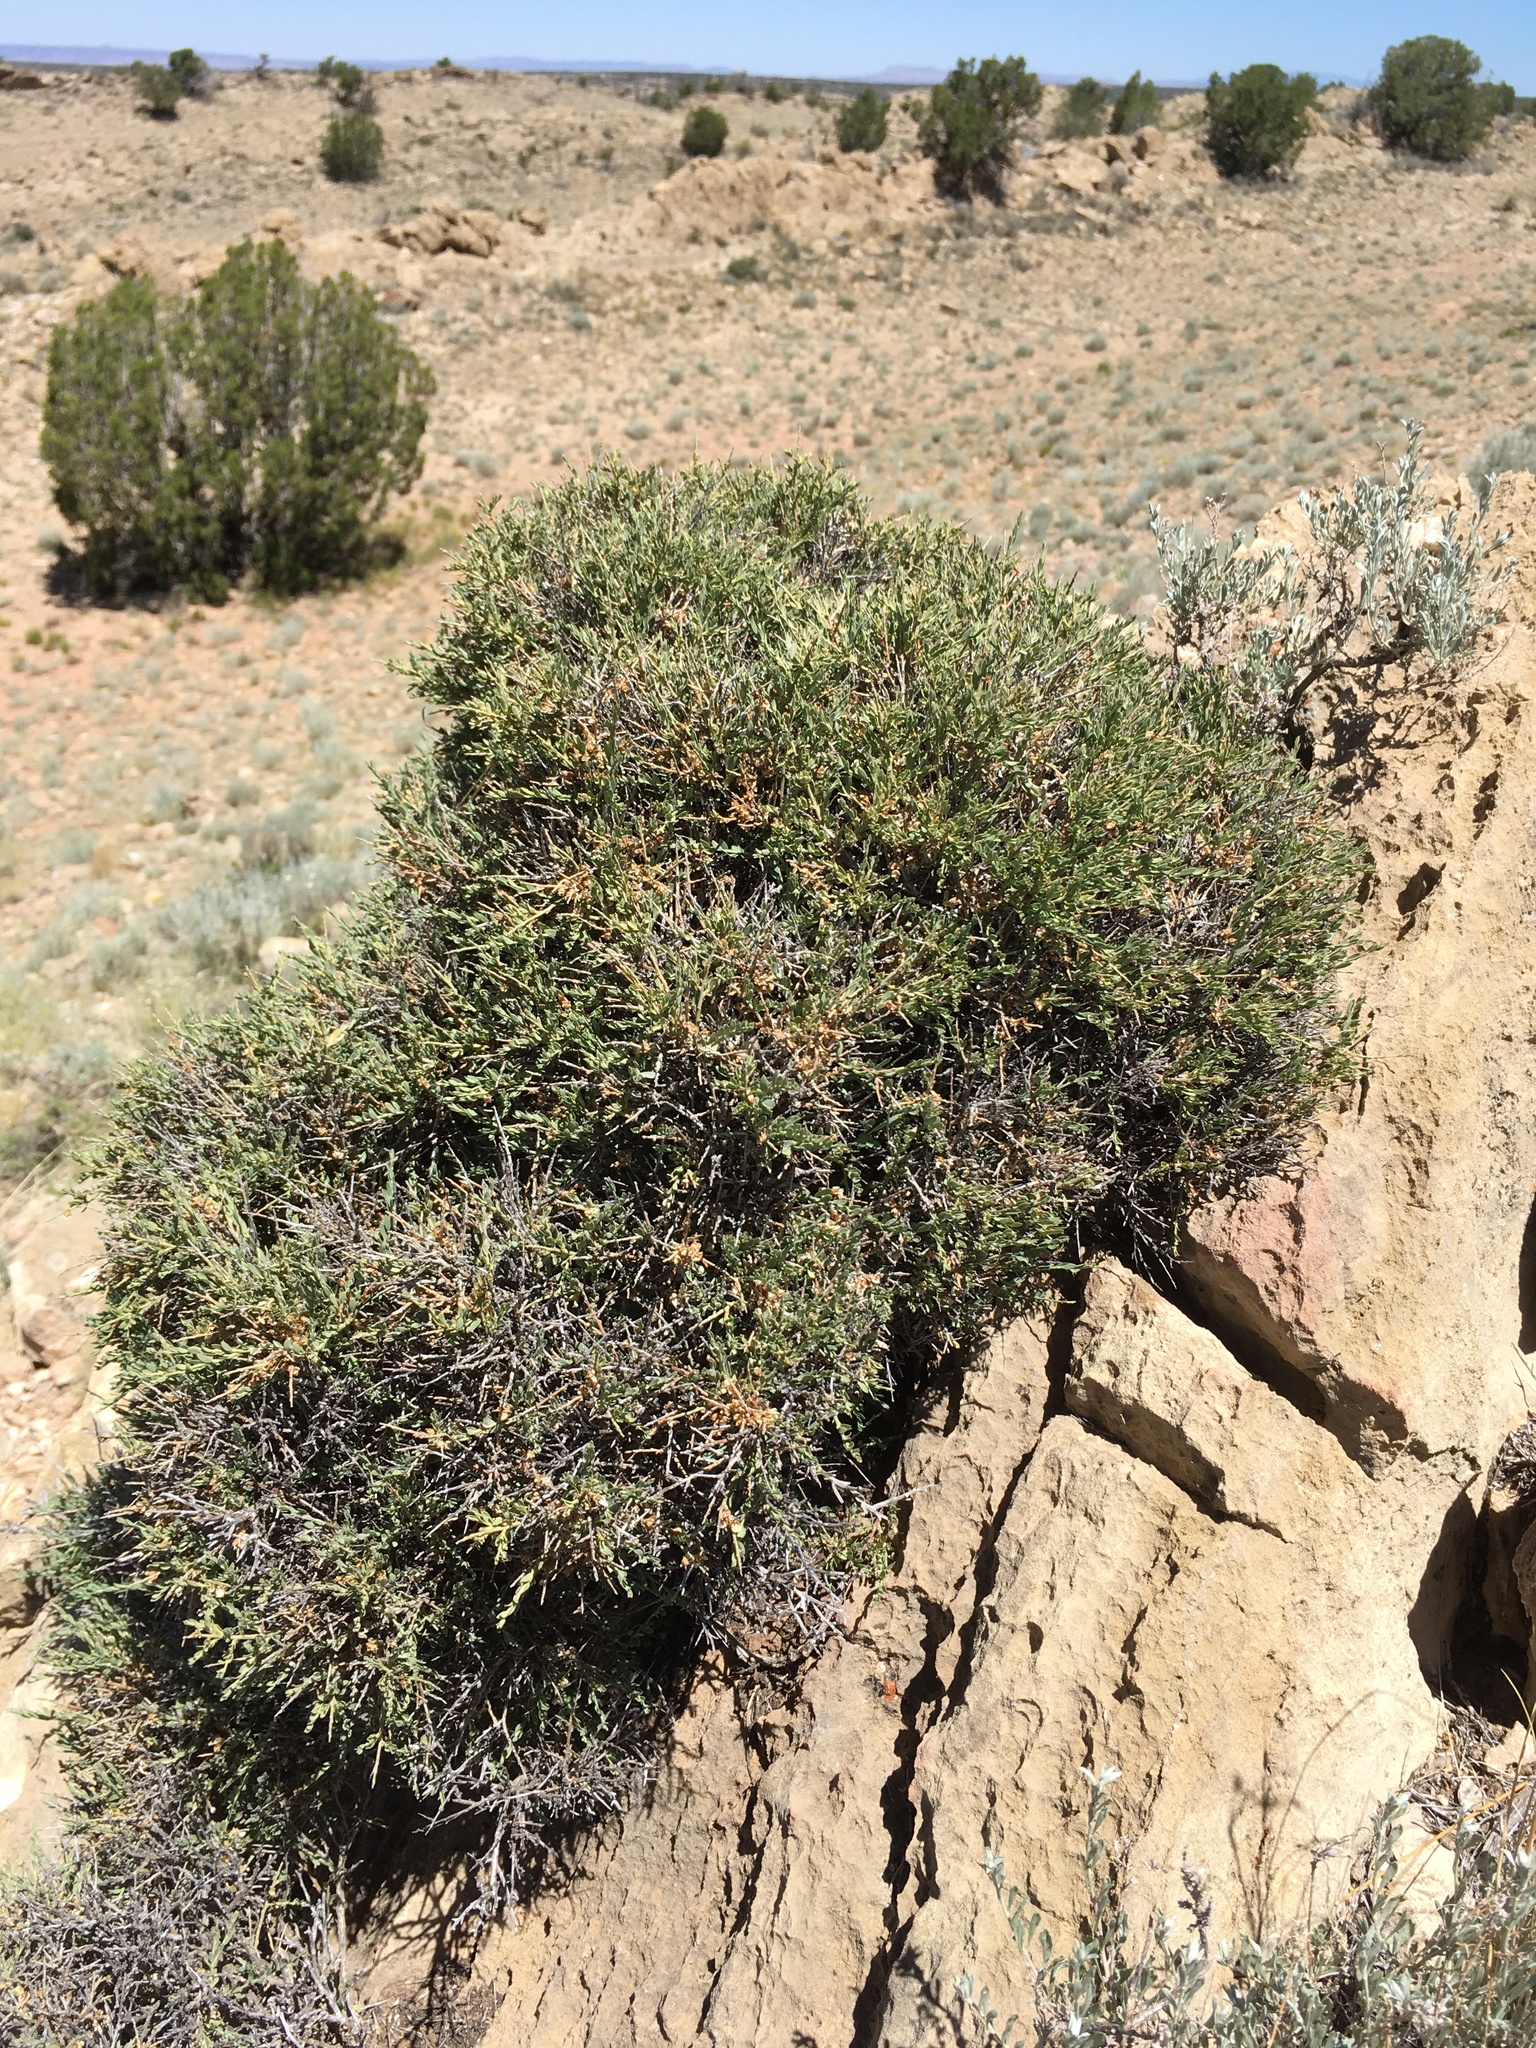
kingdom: Plantae
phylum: Tracheophyta
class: Magnoliopsida
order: Crossosomatales
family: Crossosomataceae
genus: Glossopetalon
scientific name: Glossopetalon spinescens
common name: Spring greasebush
